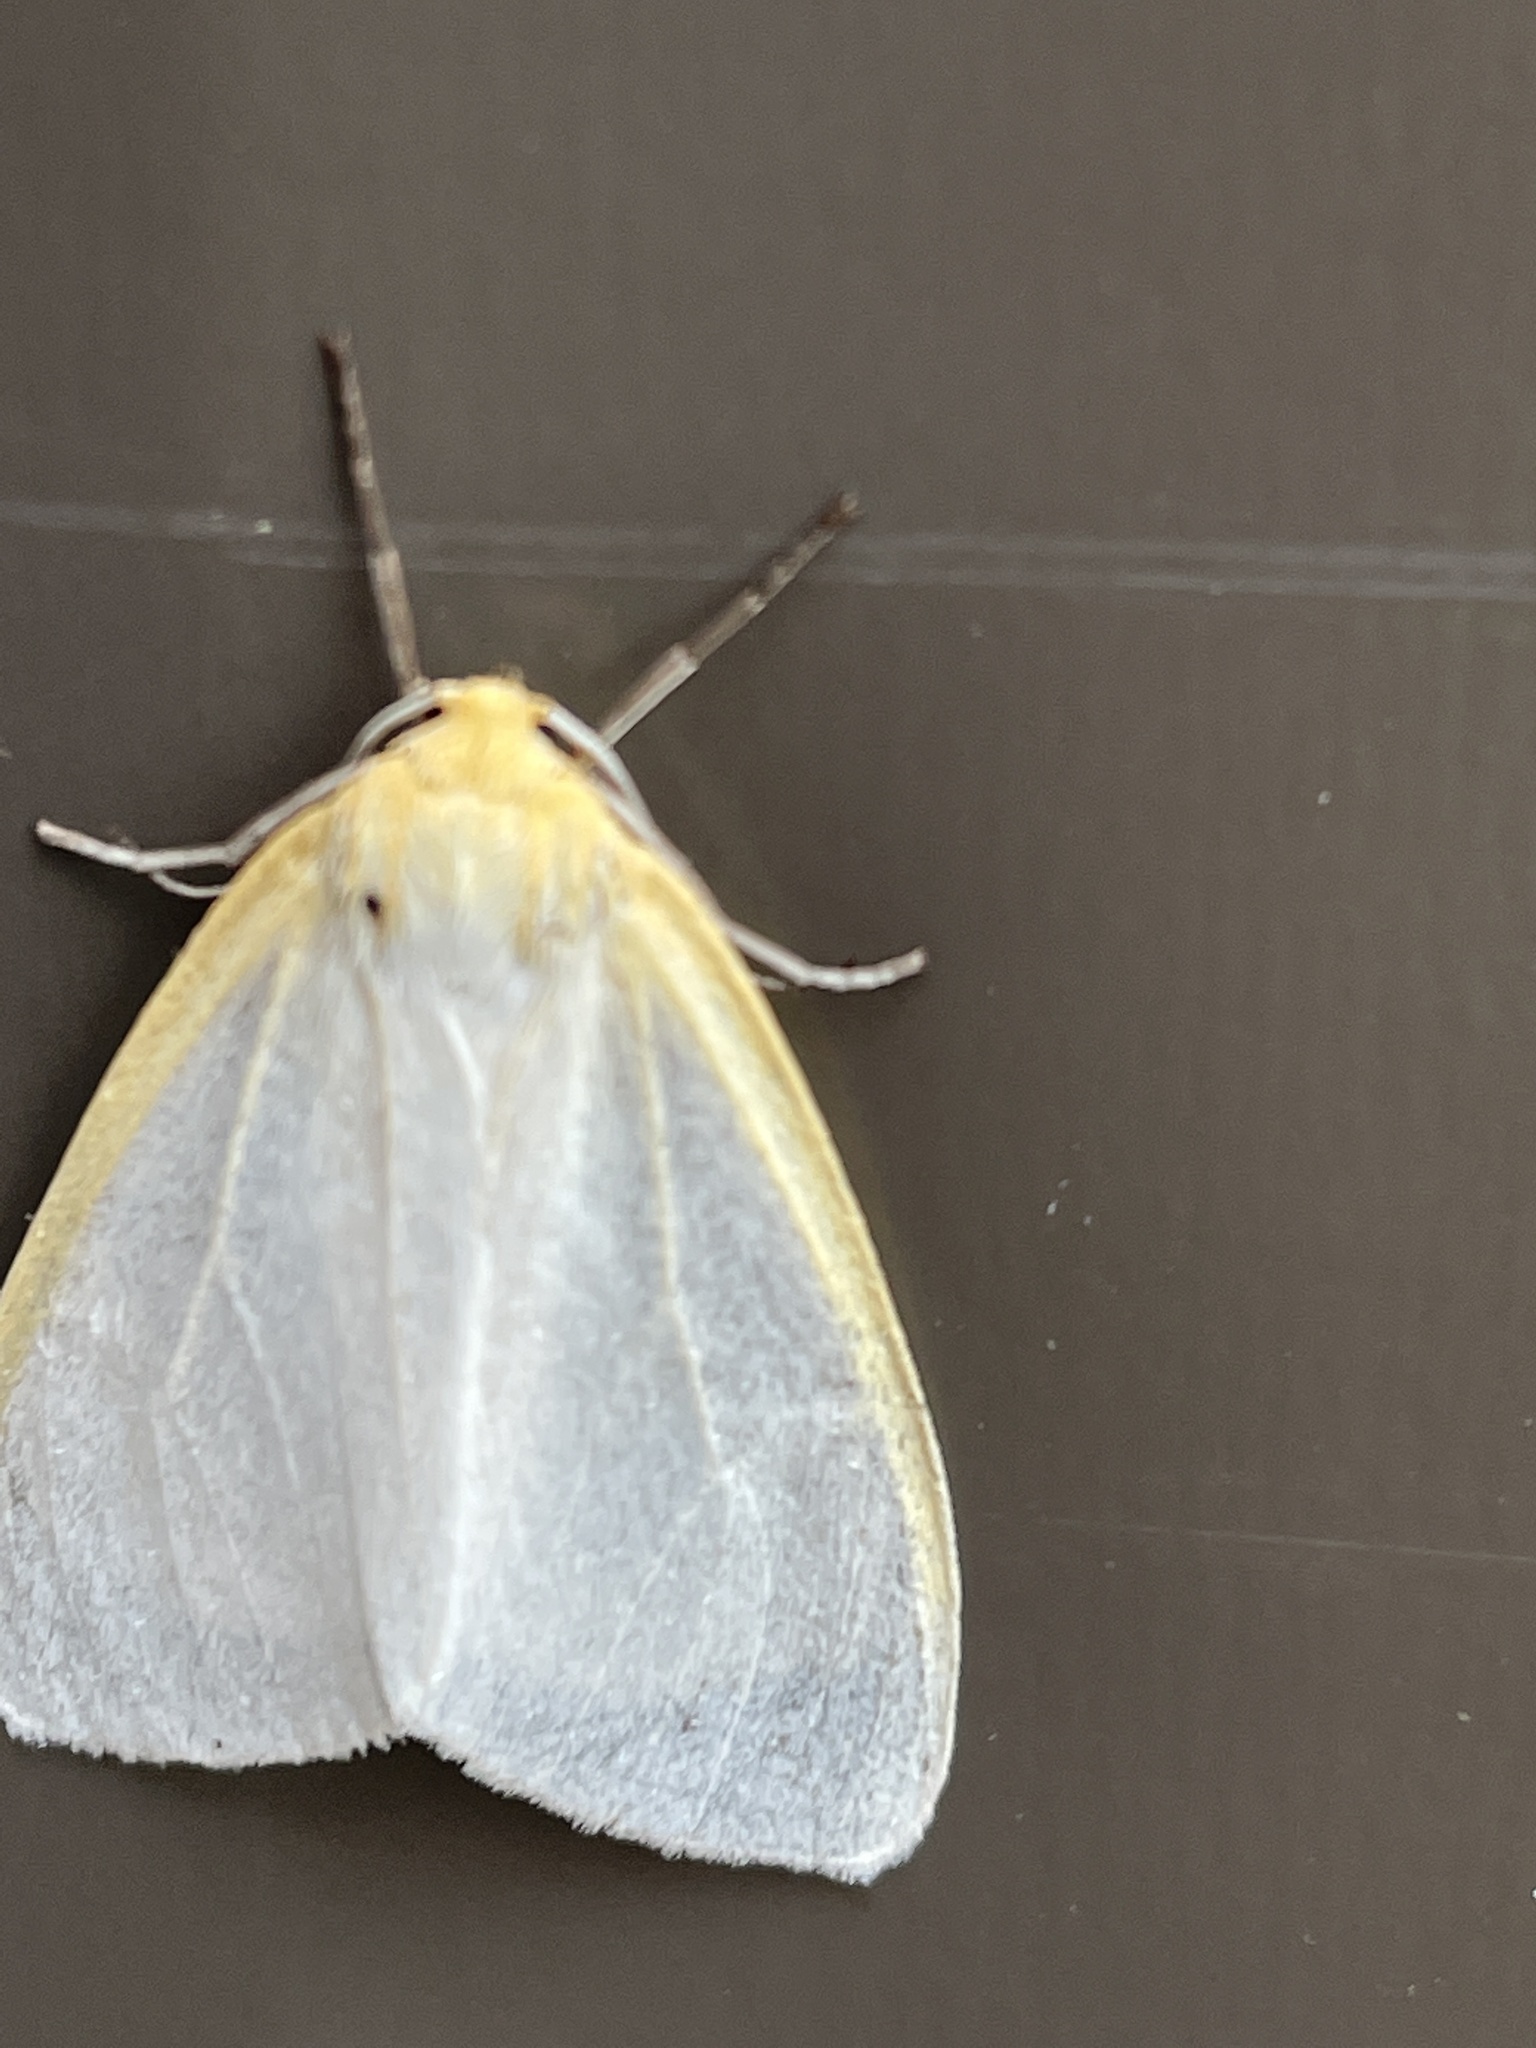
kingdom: Animalia
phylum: Arthropoda
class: Insecta
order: Lepidoptera
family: Erebidae
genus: Cycnia
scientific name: Cycnia tenera
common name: Delicate cycnia moth
